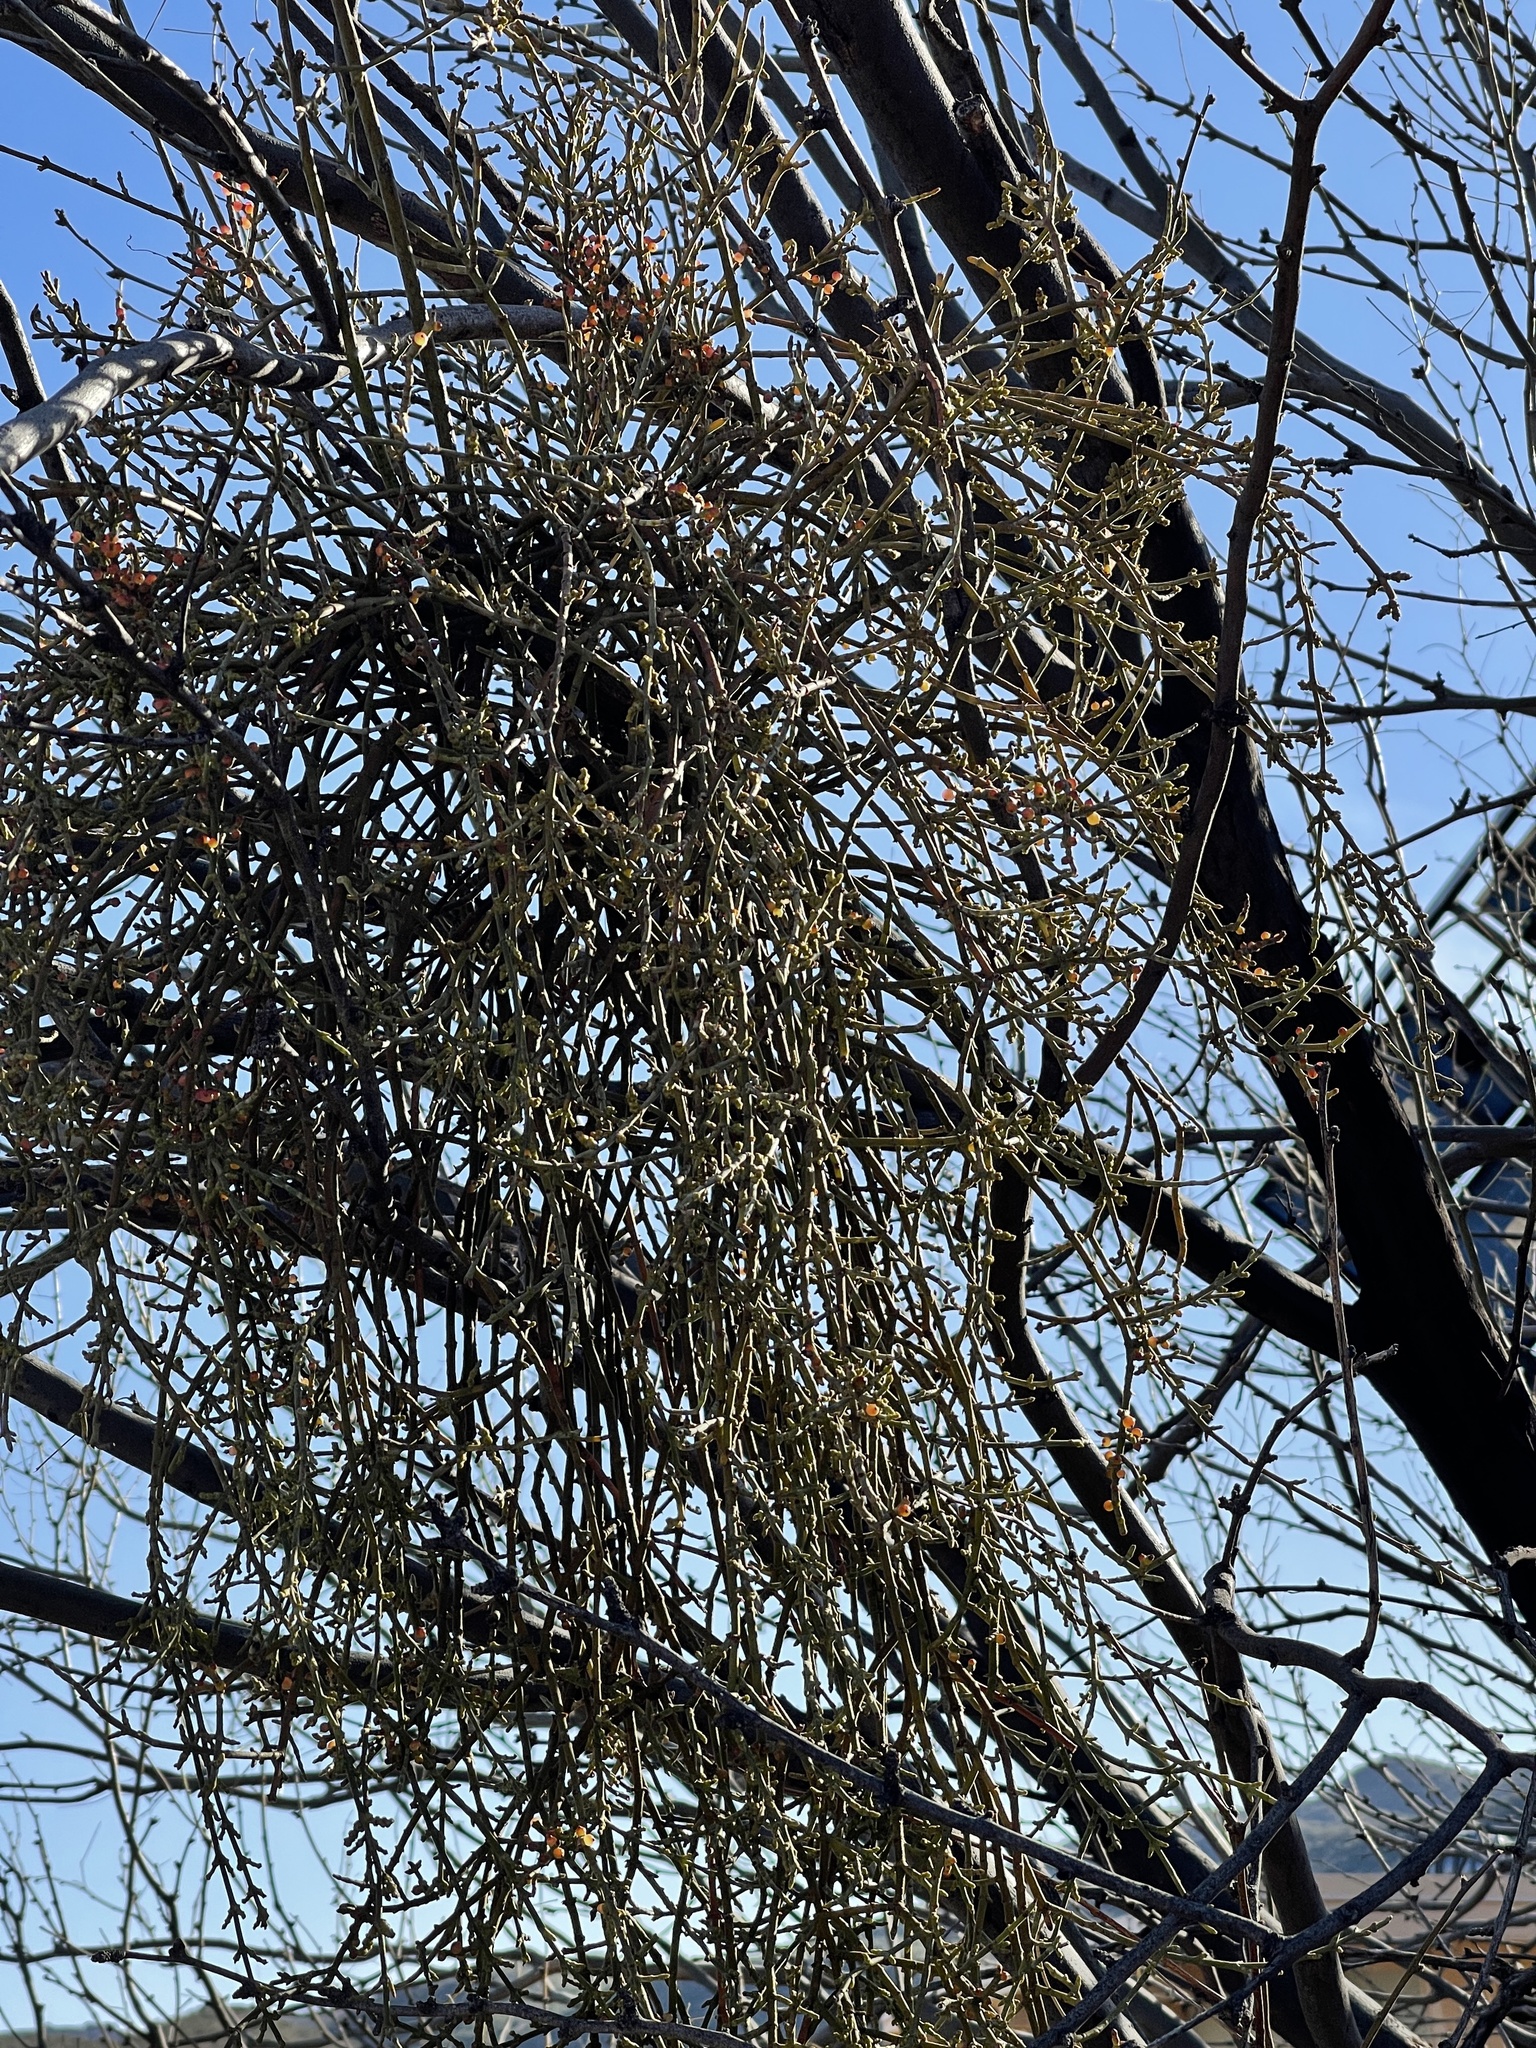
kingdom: Plantae
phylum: Tracheophyta
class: Magnoliopsida
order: Santalales
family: Viscaceae
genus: Phoradendron
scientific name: Phoradendron californicum
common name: Acacia mistletoe
